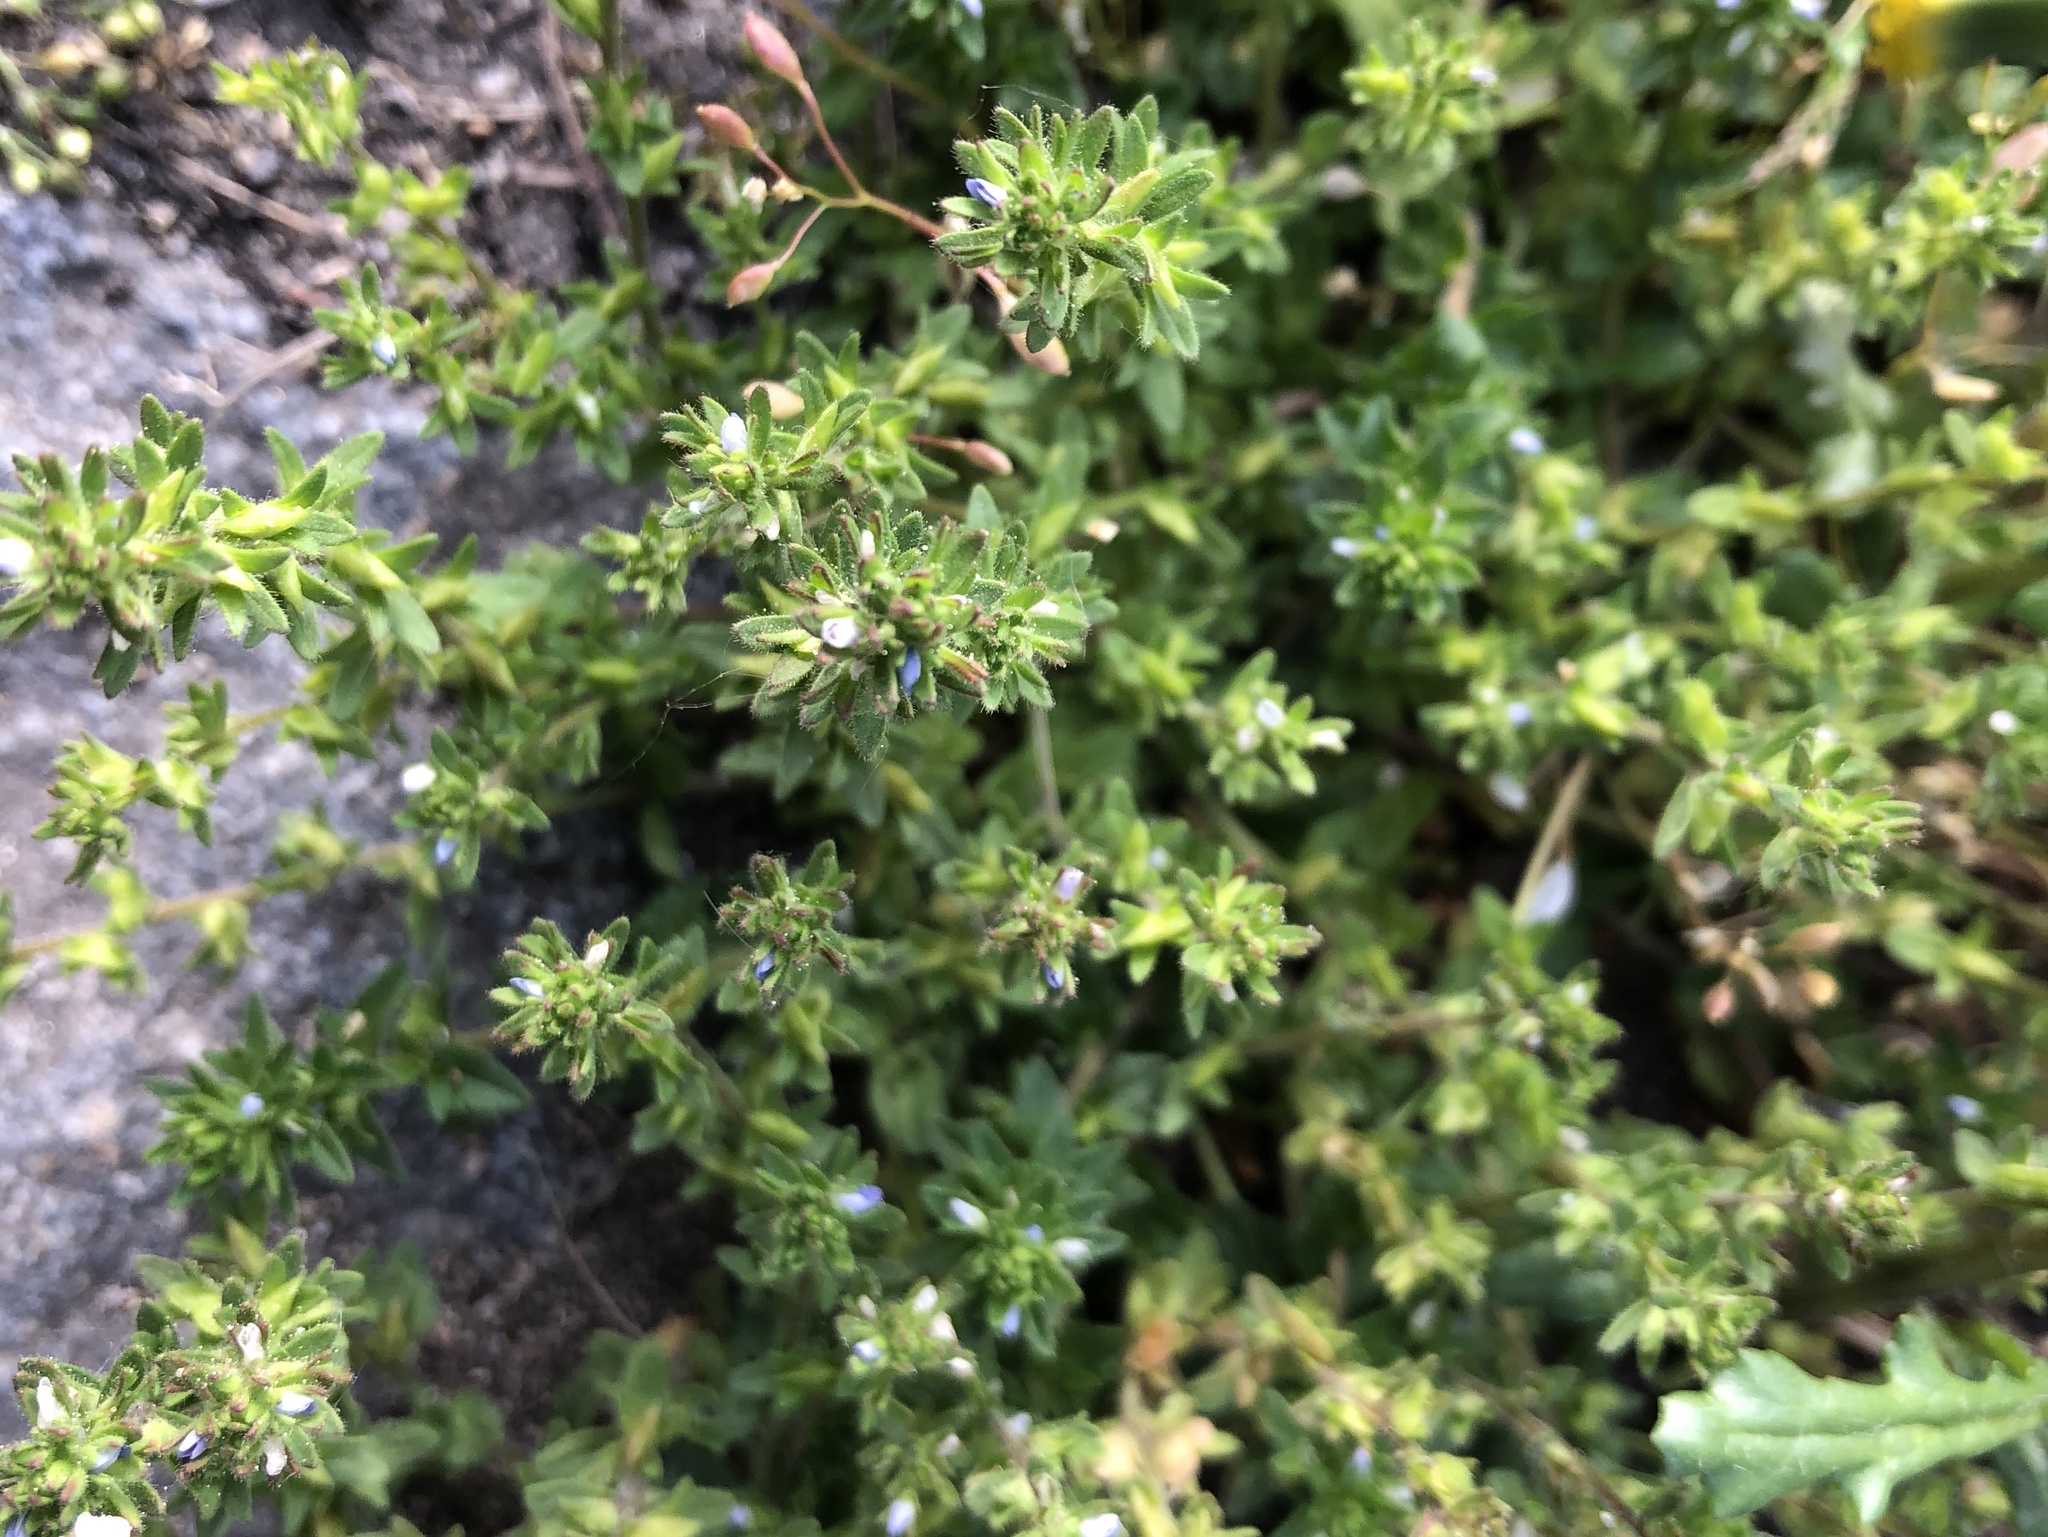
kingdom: Plantae
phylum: Tracheophyta
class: Magnoliopsida
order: Lamiales
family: Plantaginaceae
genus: Veronica
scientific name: Veronica arvensis
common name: Corn speedwell
